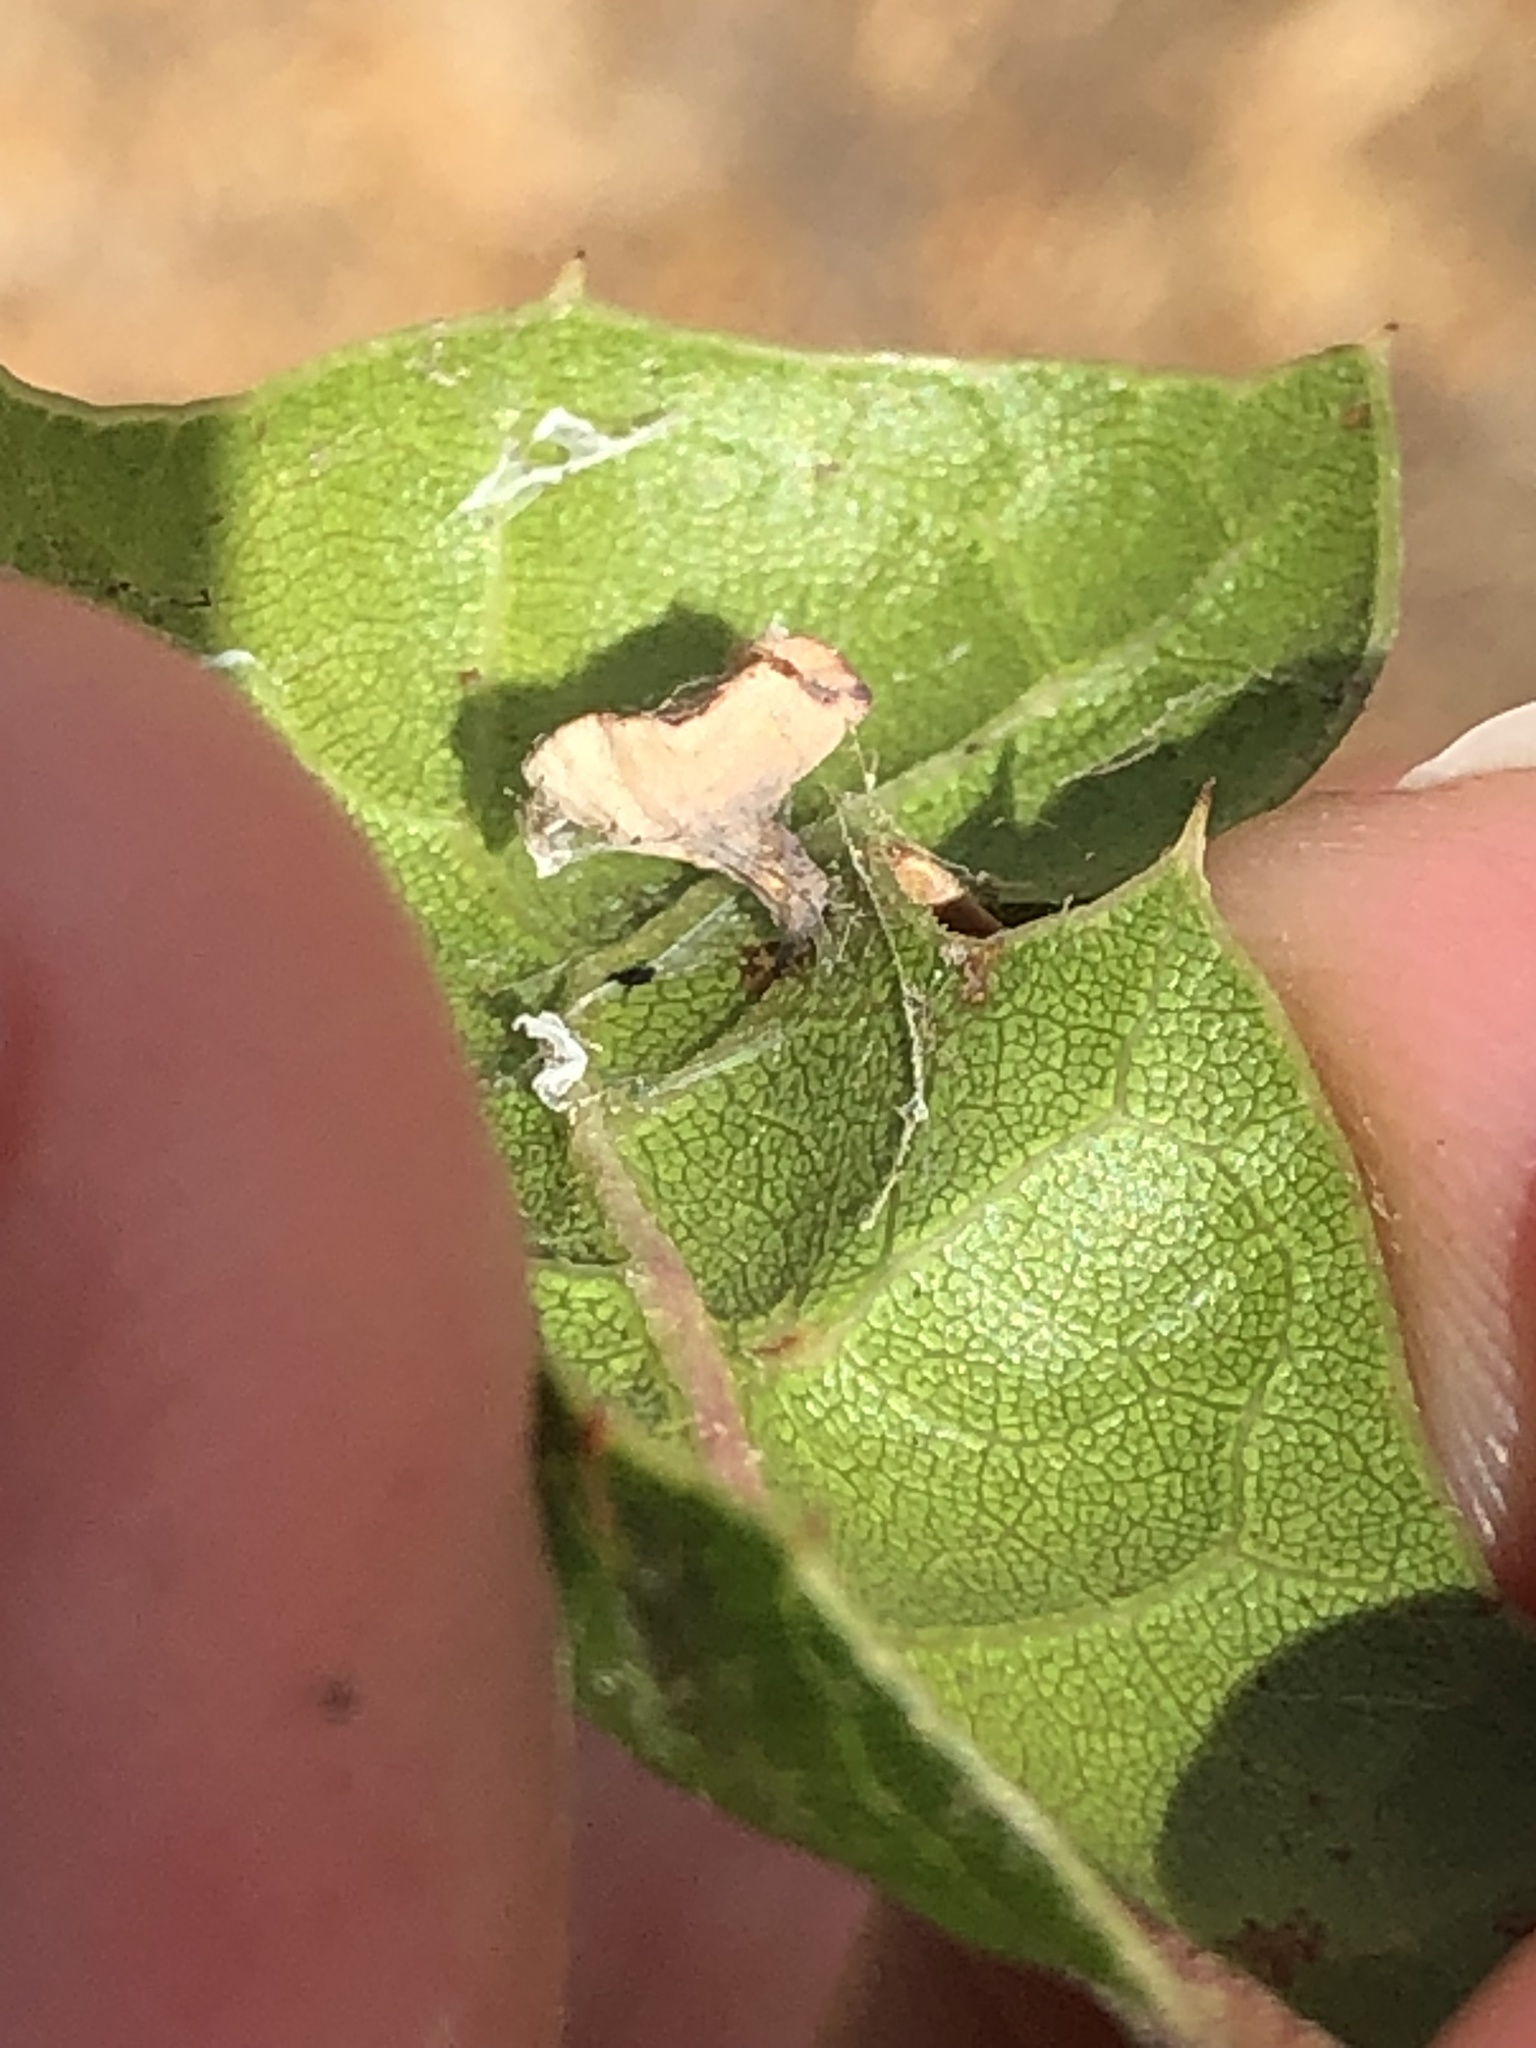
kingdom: Animalia
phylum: Arthropoda
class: Insecta
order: Hymenoptera
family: Cynipidae
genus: Amphibolips
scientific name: Amphibolips quercuspomiformis
